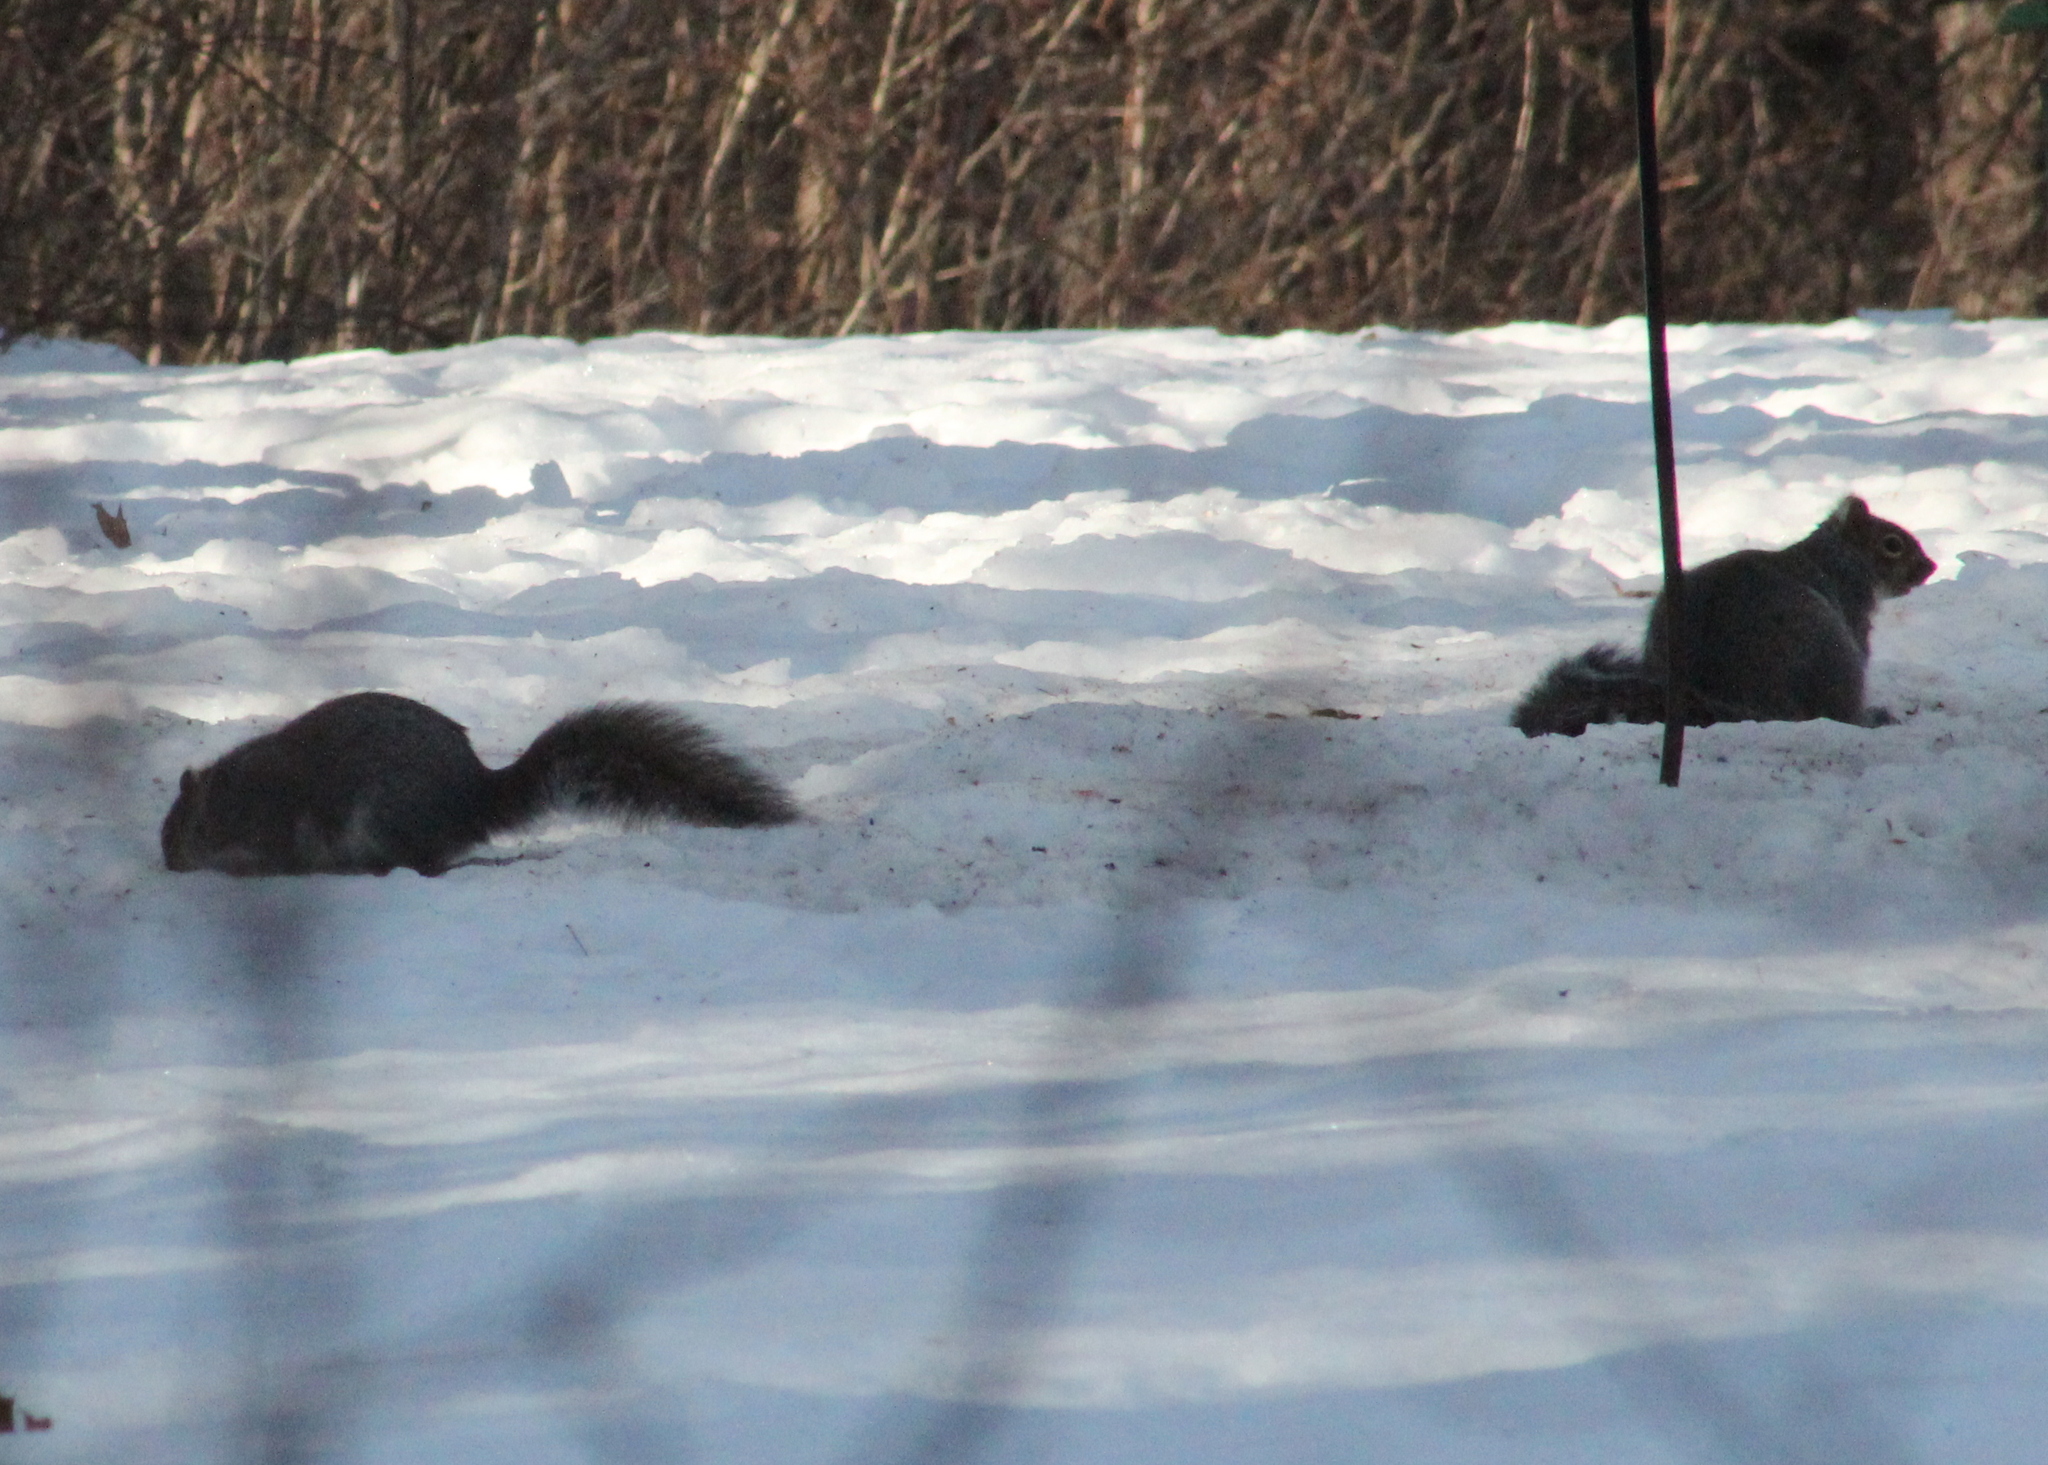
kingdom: Animalia
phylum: Chordata
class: Mammalia
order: Rodentia
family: Sciuridae
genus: Sciurus
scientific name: Sciurus carolinensis
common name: Eastern gray squirrel
